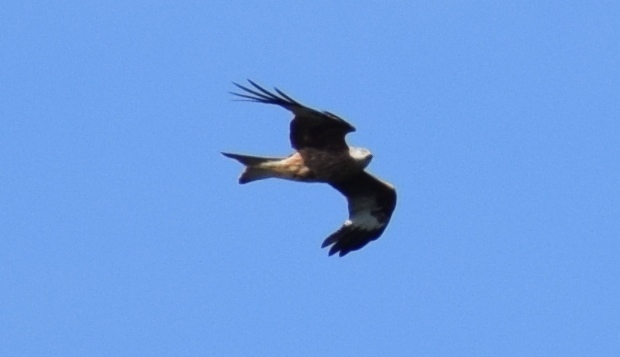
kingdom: Animalia
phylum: Chordata
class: Aves
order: Accipitriformes
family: Accipitridae
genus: Milvus
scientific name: Milvus milvus
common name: Red kite
